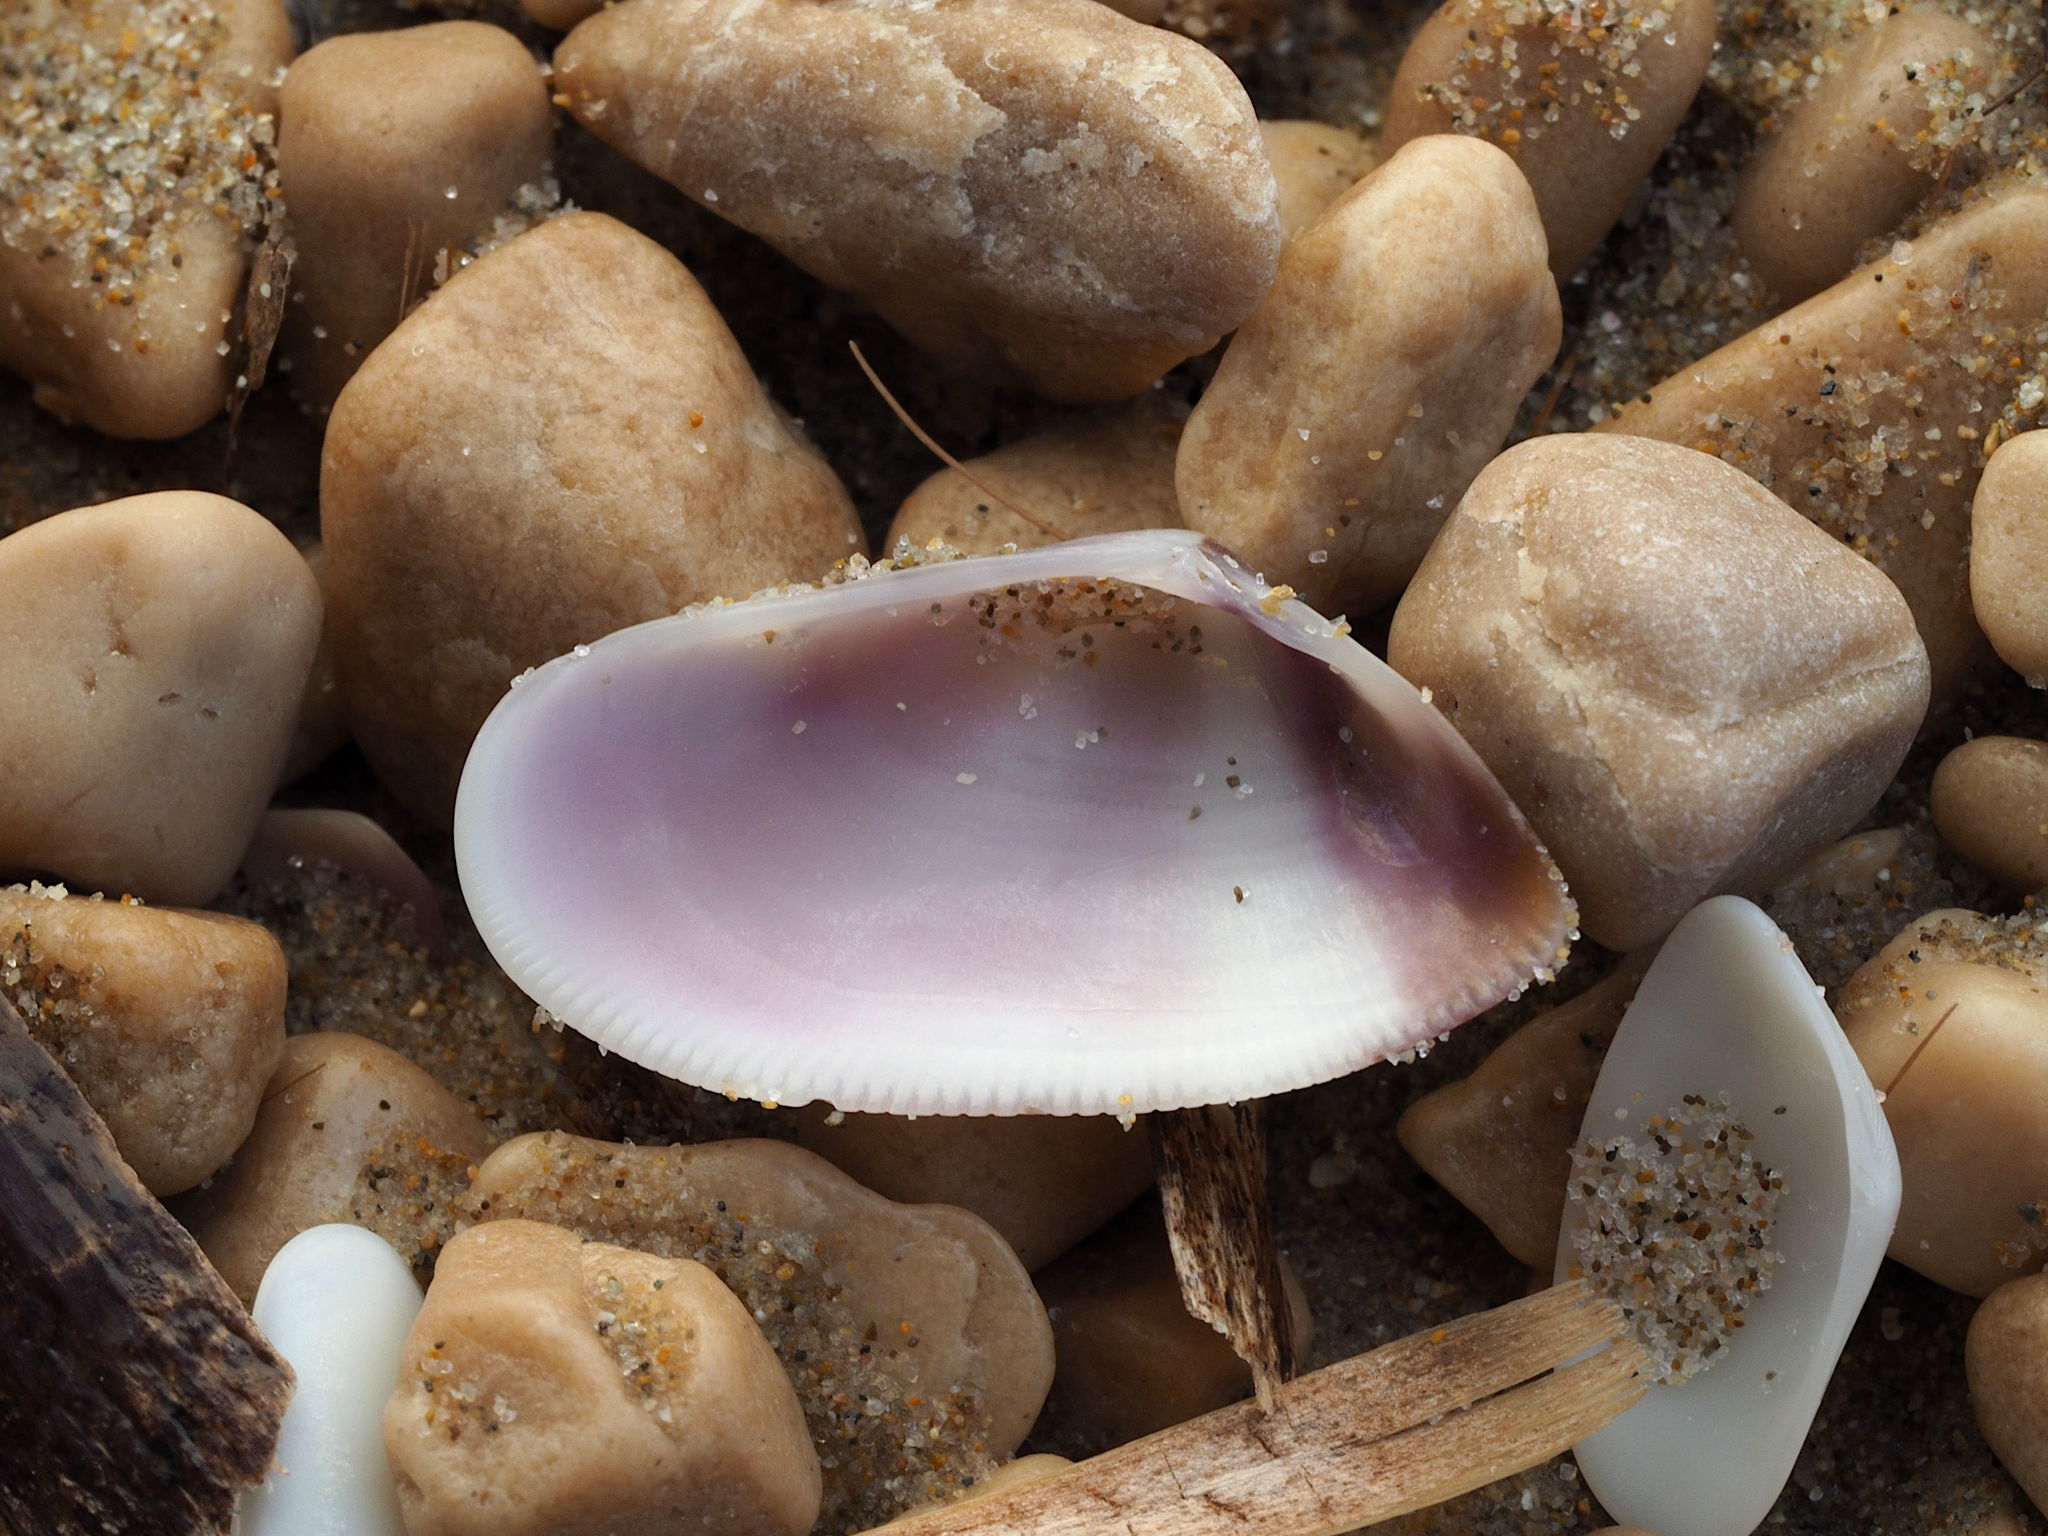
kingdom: Animalia
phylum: Mollusca
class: Bivalvia
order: Cardiida
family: Donacidae
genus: Donax
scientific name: Donax semistriatus
